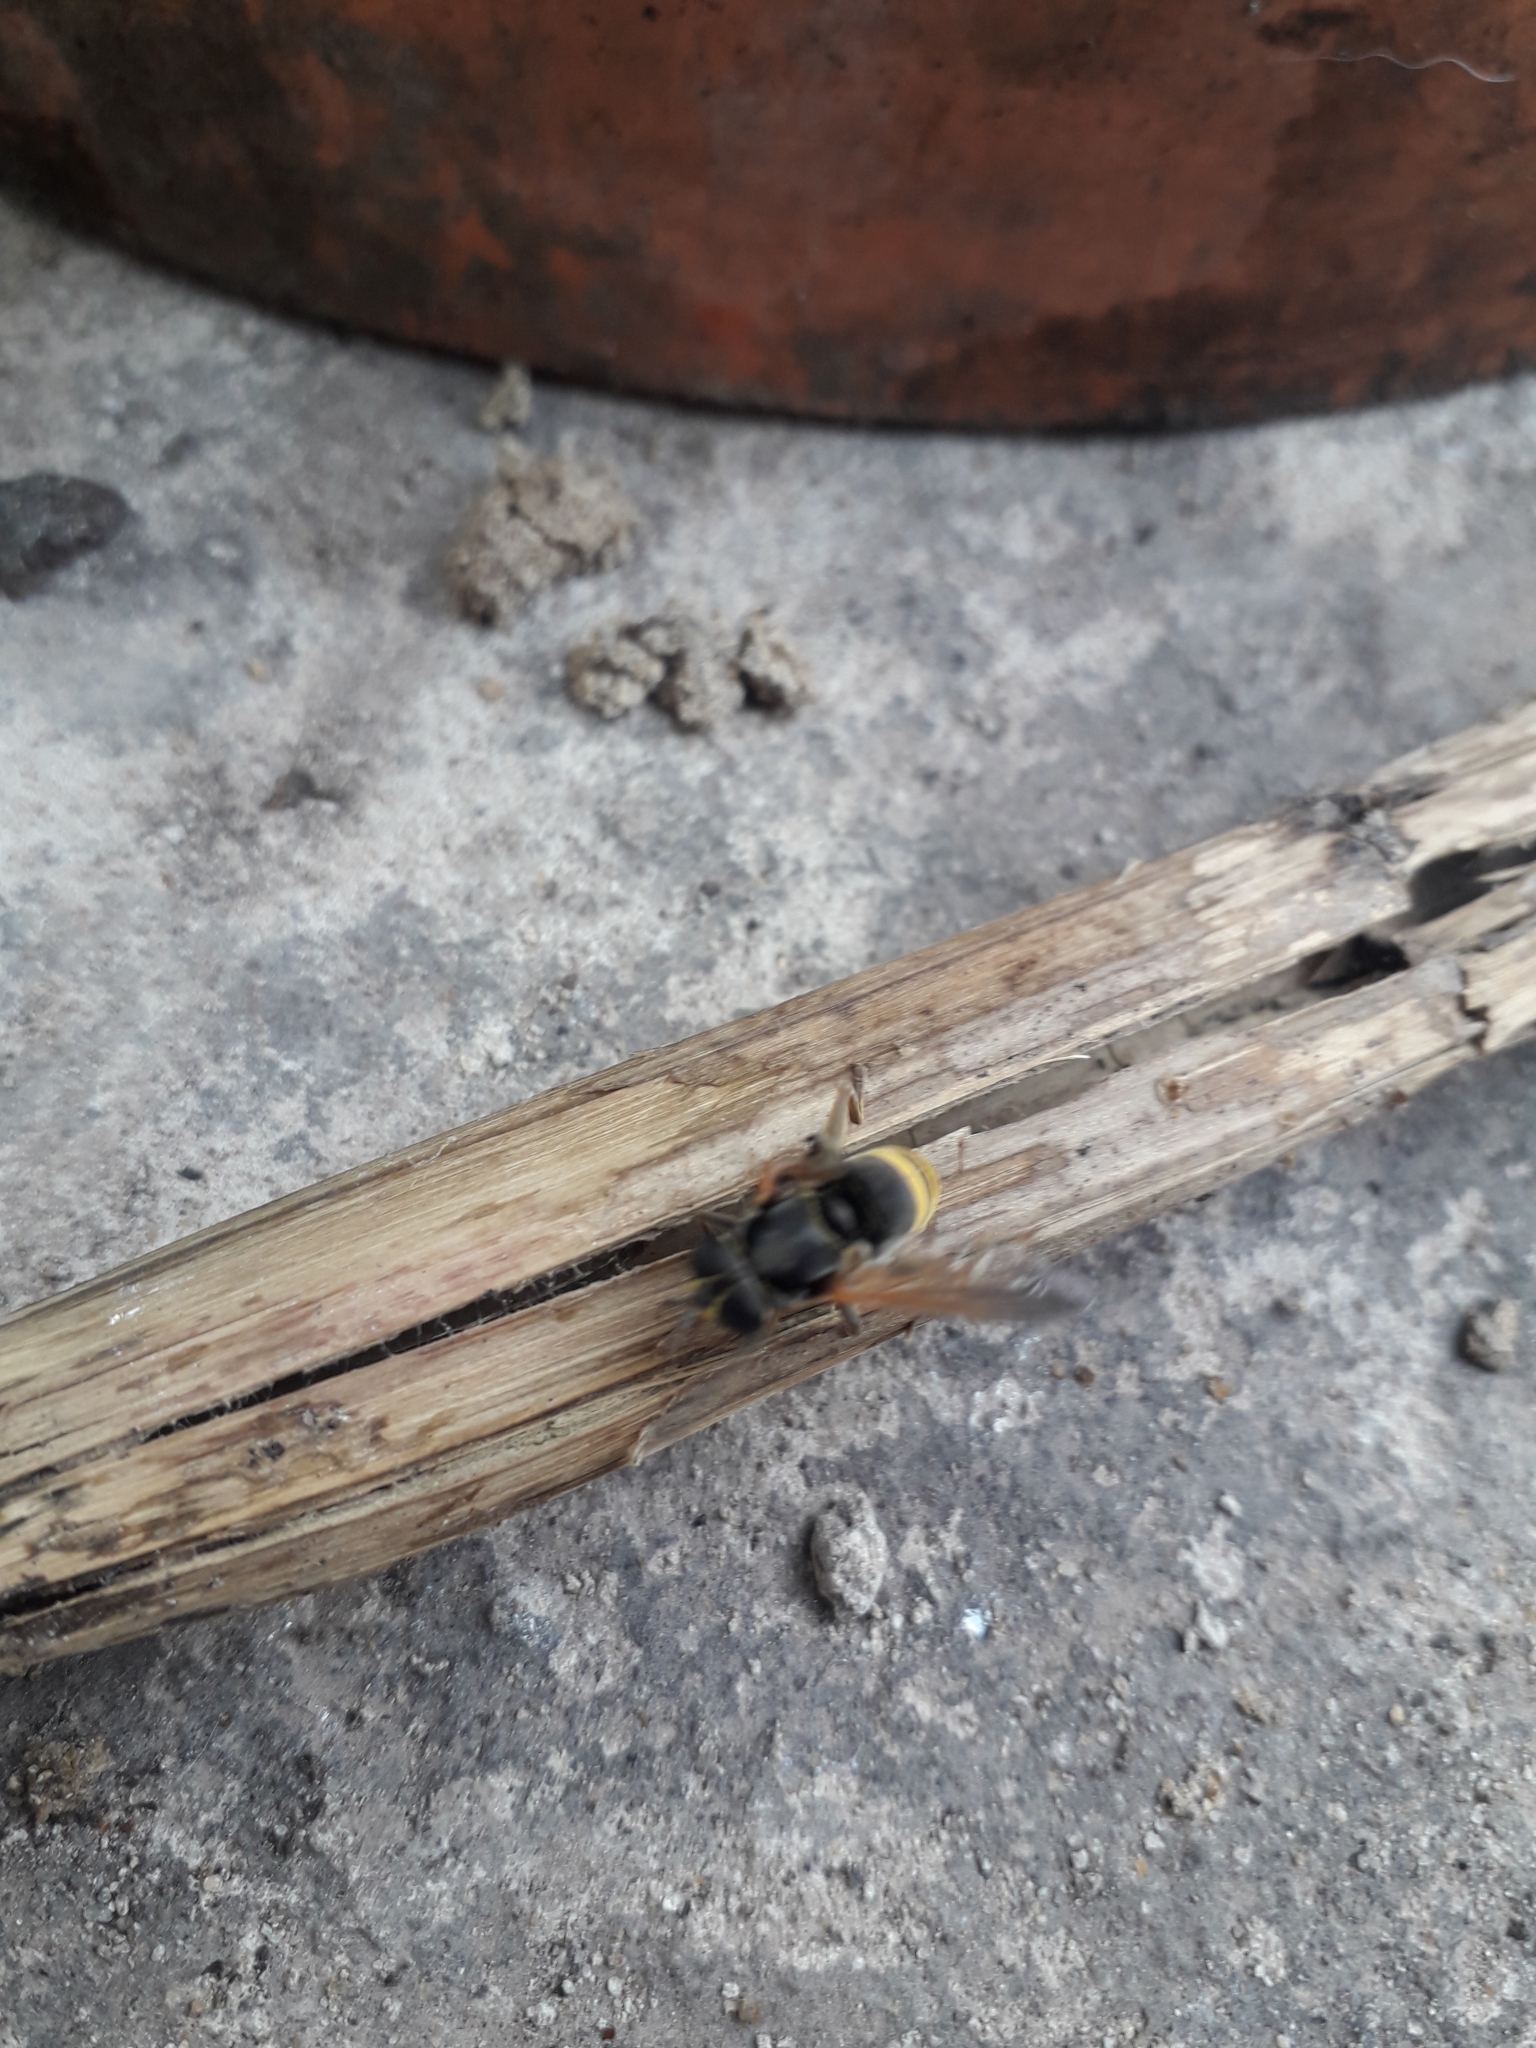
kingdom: Animalia
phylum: Arthropoda
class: Insecta
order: Diptera
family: Syrphidae
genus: Meromacrus
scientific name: Meromacrus nectarinoides
